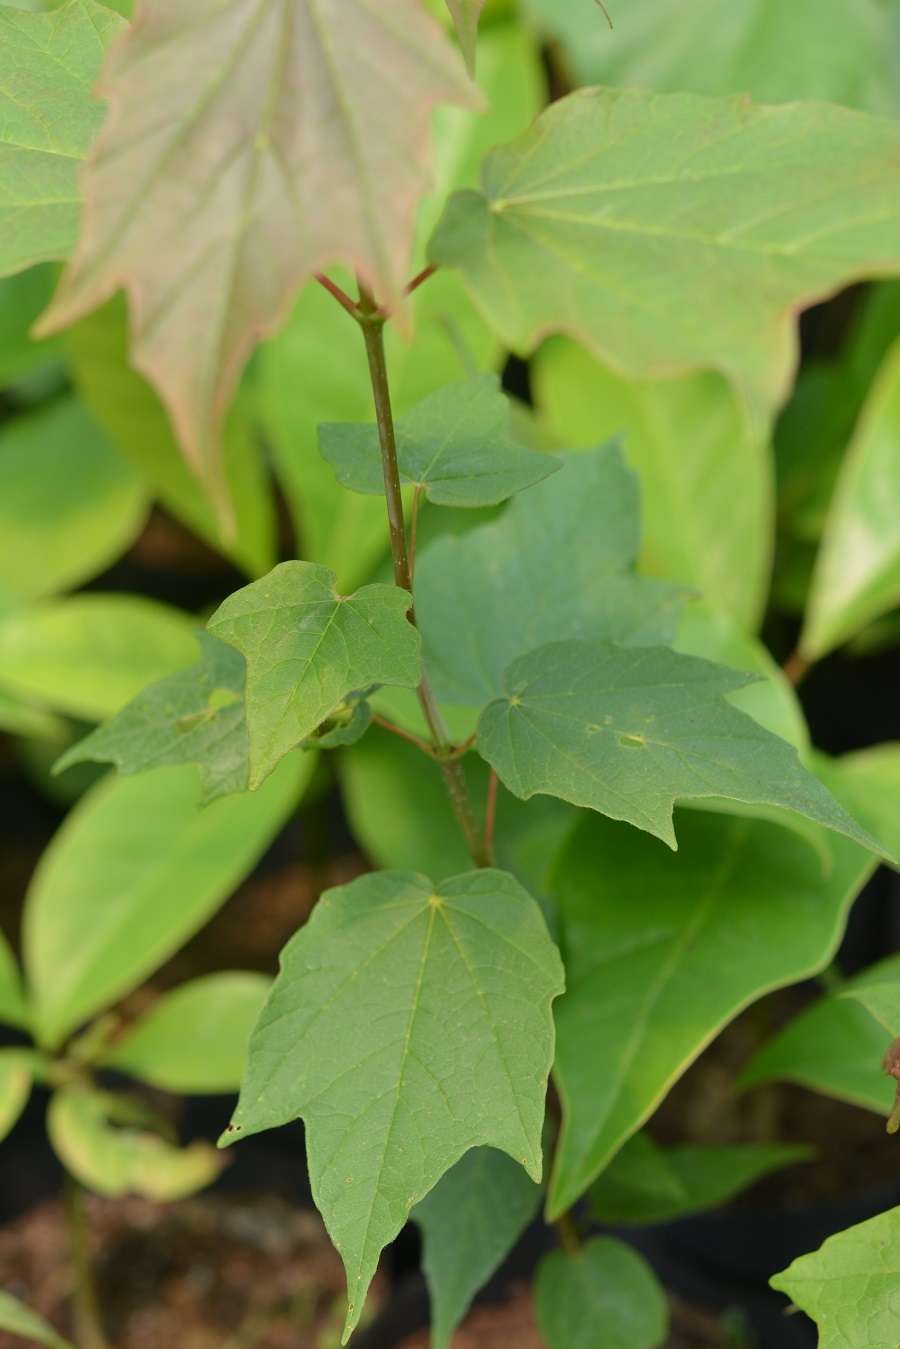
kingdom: Plantae
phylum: Tracheophyta
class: Magnoliopsida
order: Sapindales
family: Sapindaceae
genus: Acer
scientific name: Acer skutchii
